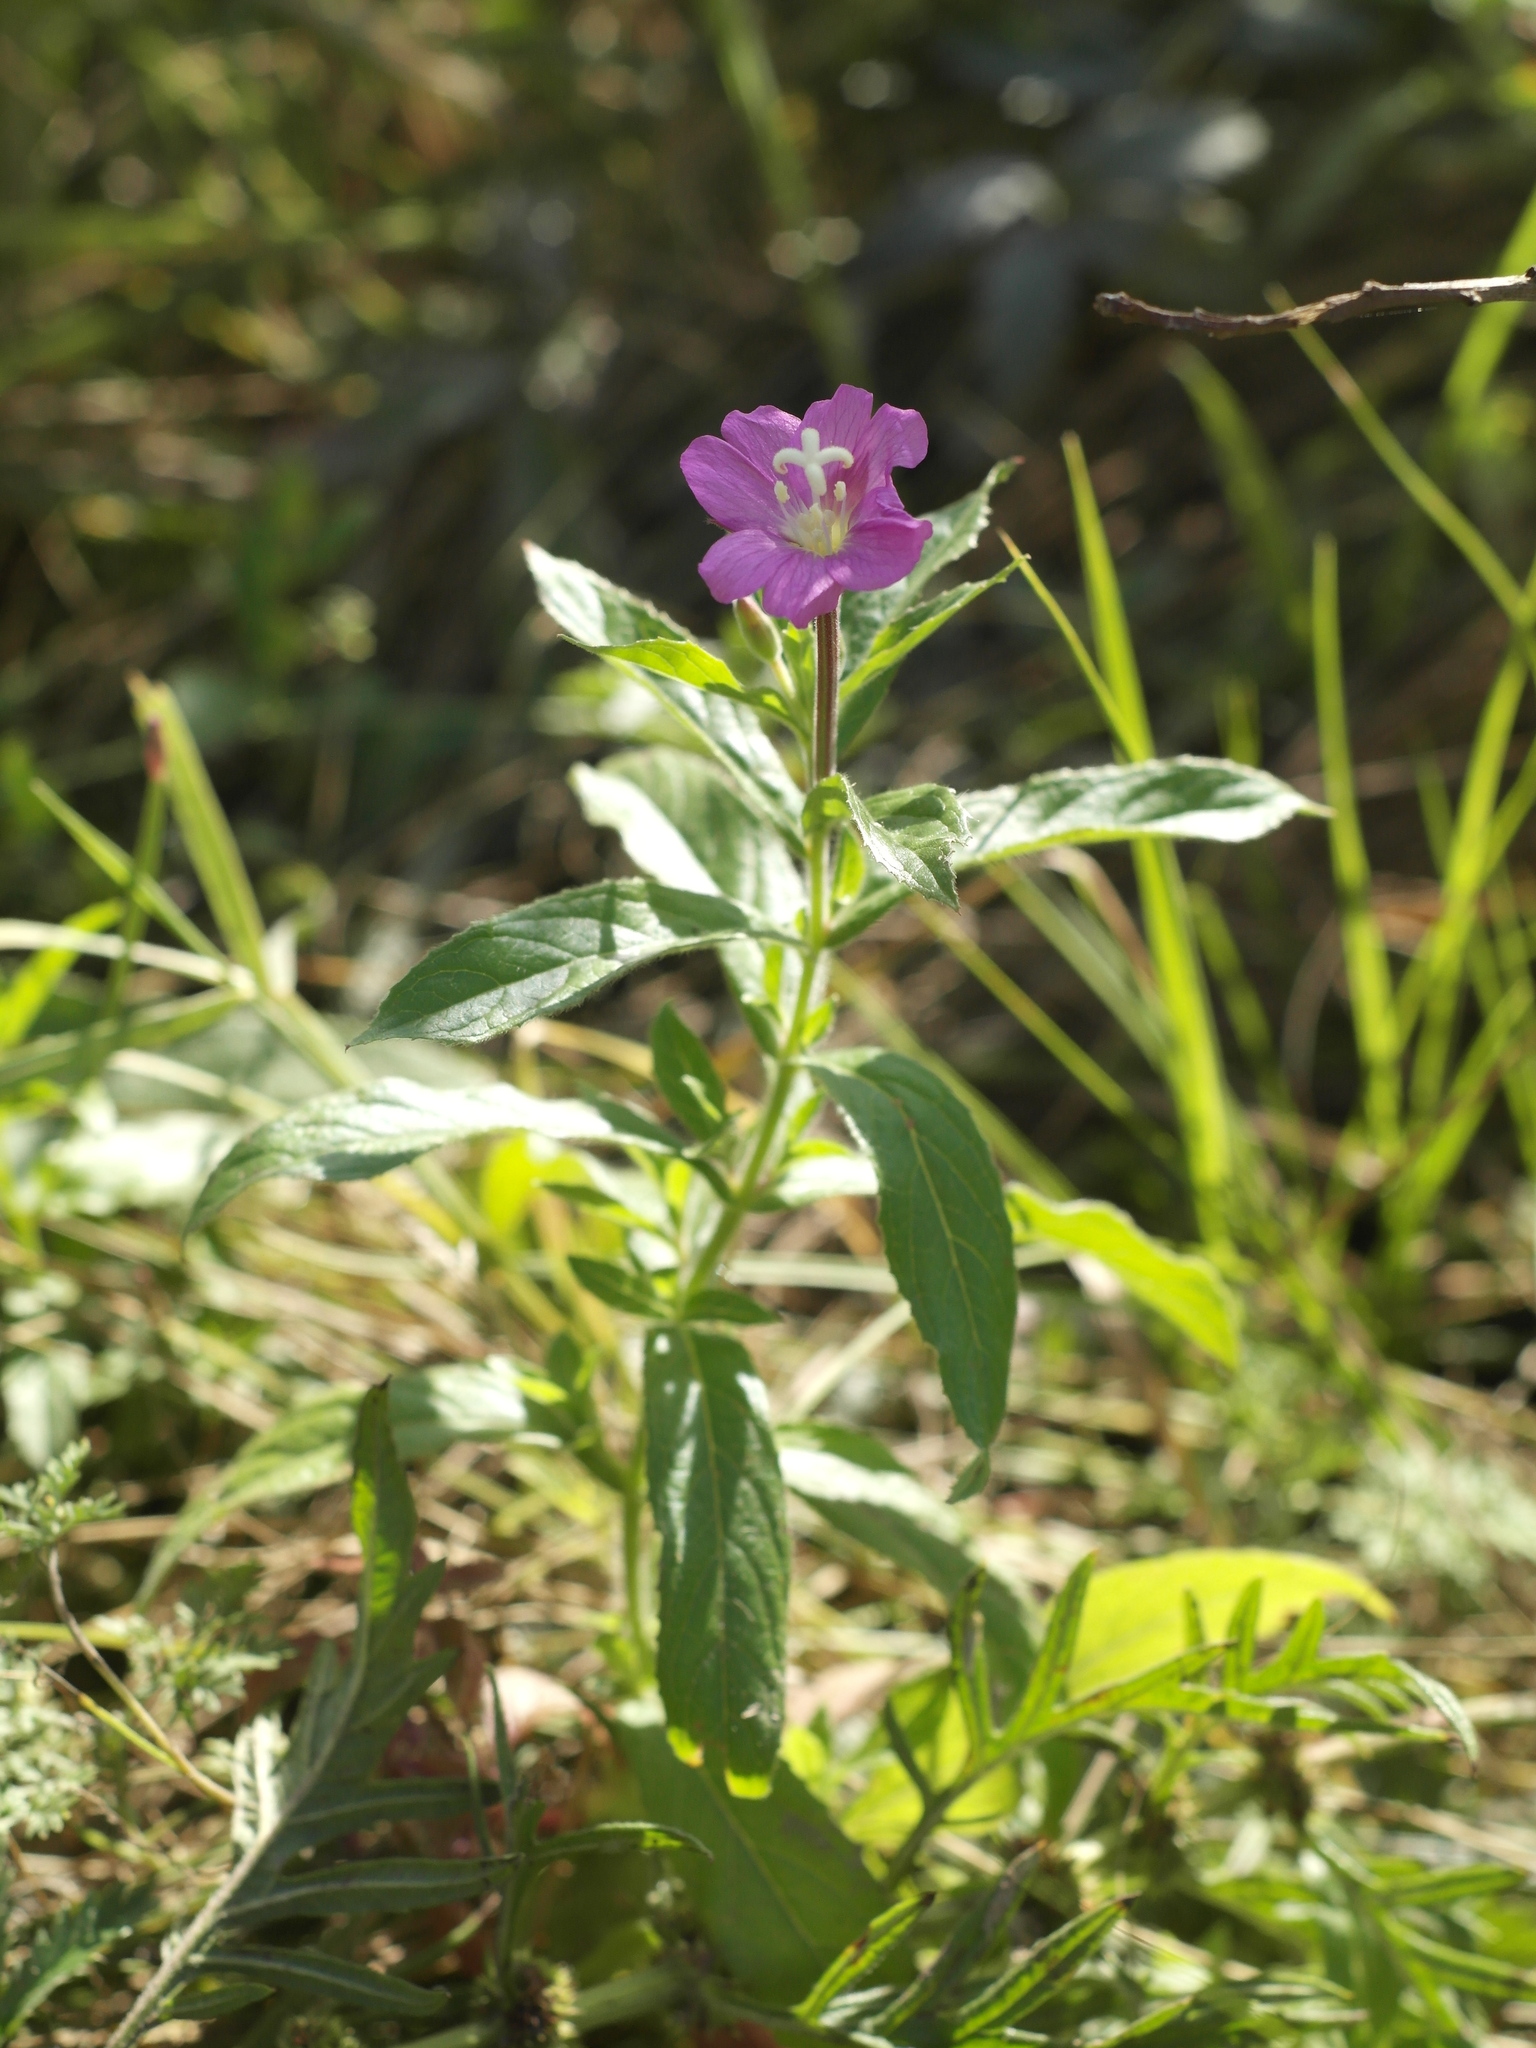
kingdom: Plantae
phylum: Tracheophyta
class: Magnoliopsida
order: Myrtales
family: Onagraceae
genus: Epilobium
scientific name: Epilobium hirsutum
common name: Great willowherb
